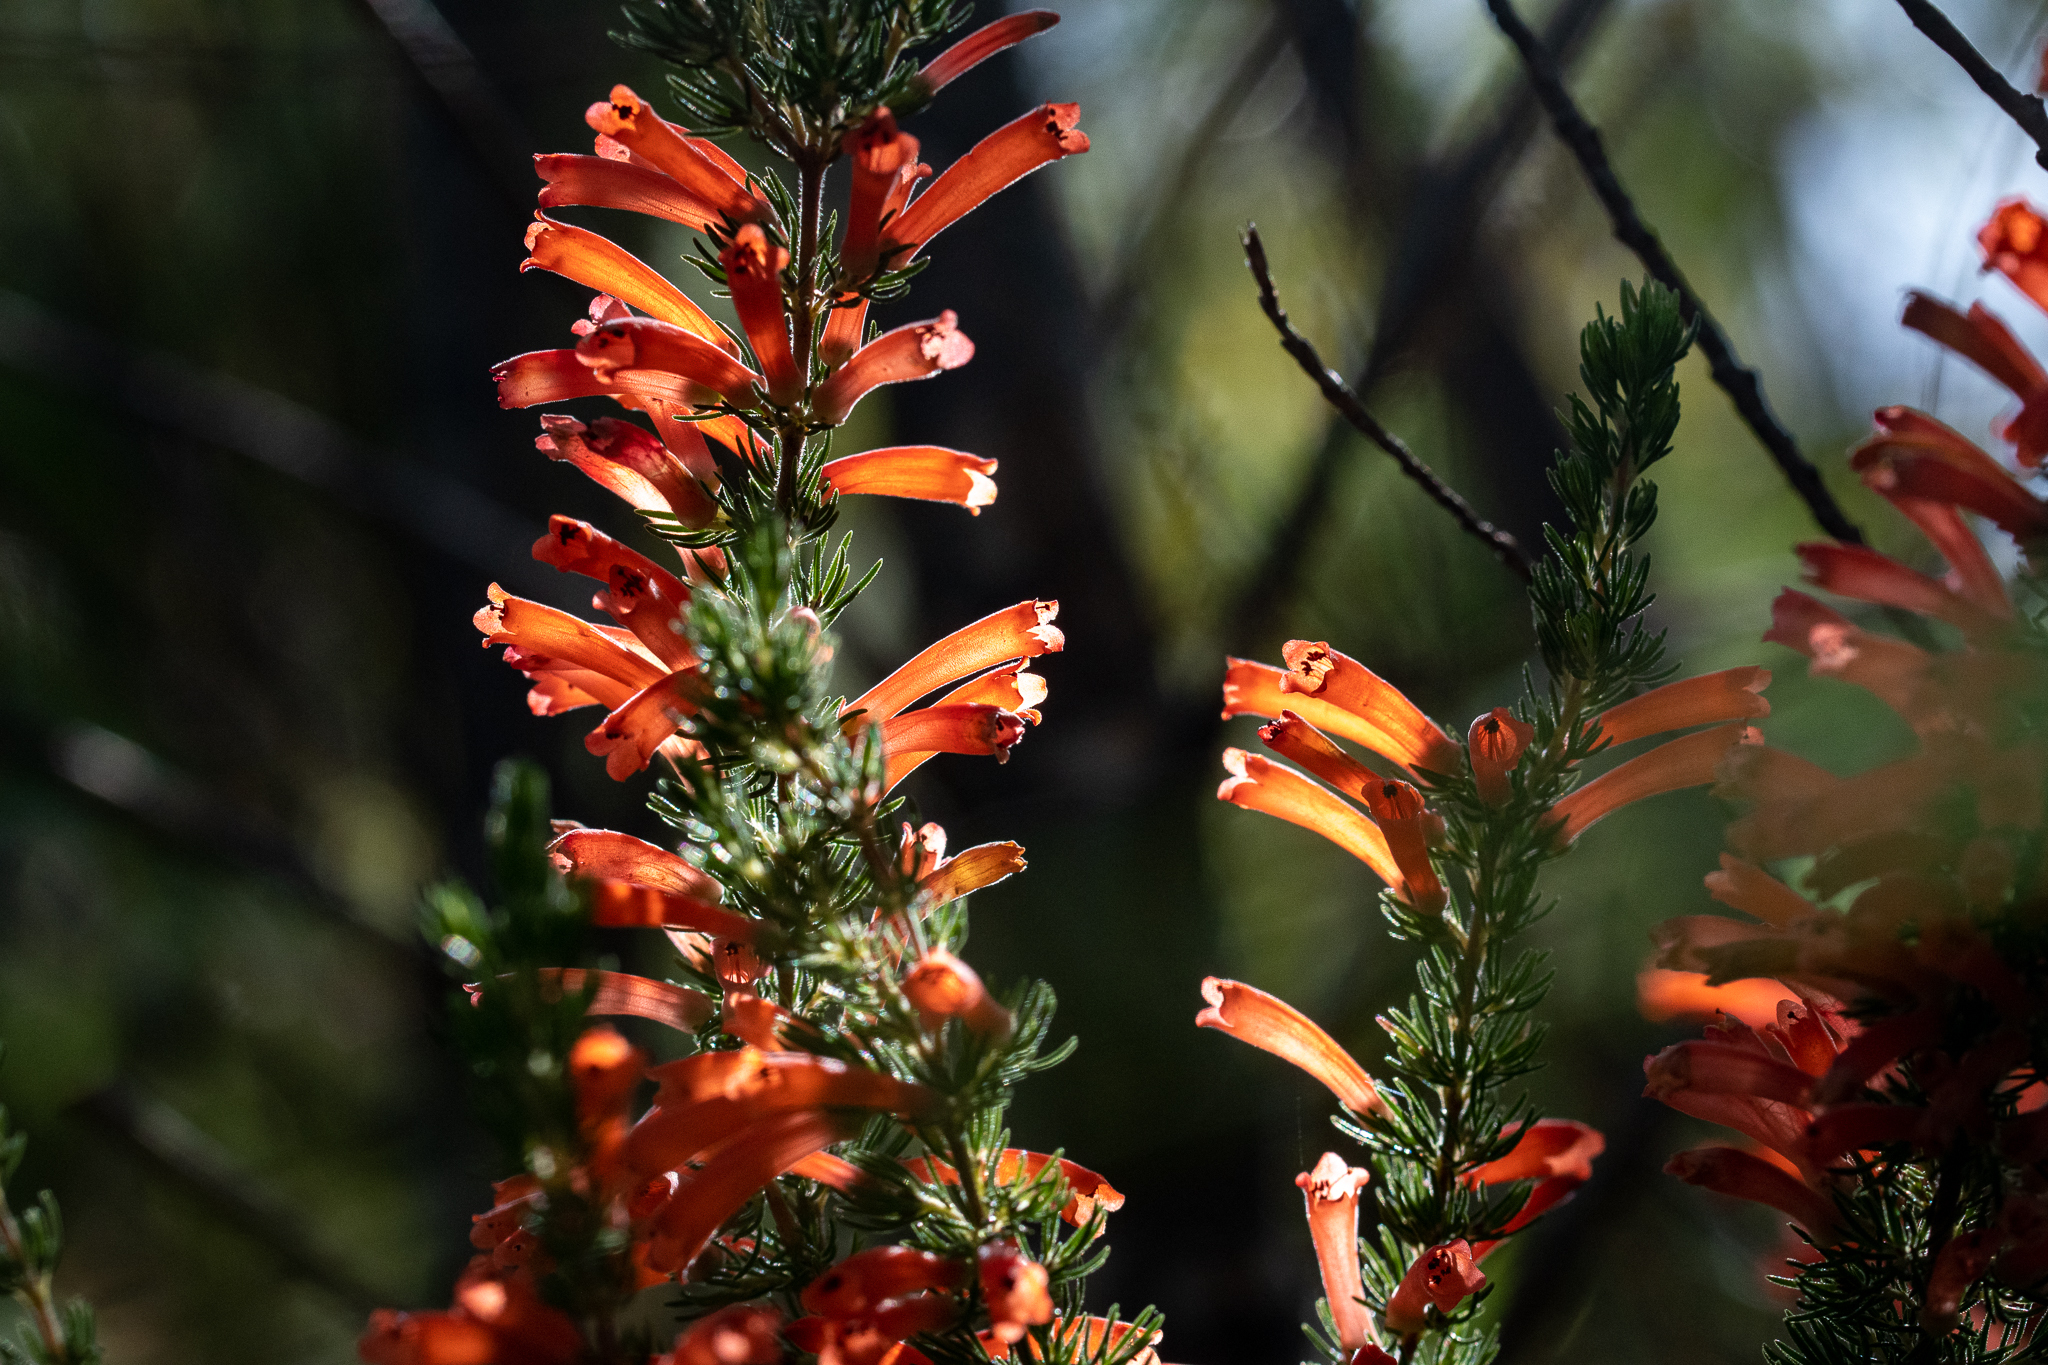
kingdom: Plantae
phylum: Tracheophyta
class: Magnoliopsida
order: Ericales
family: Ericaceae
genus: Erica
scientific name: Erica pillansii
